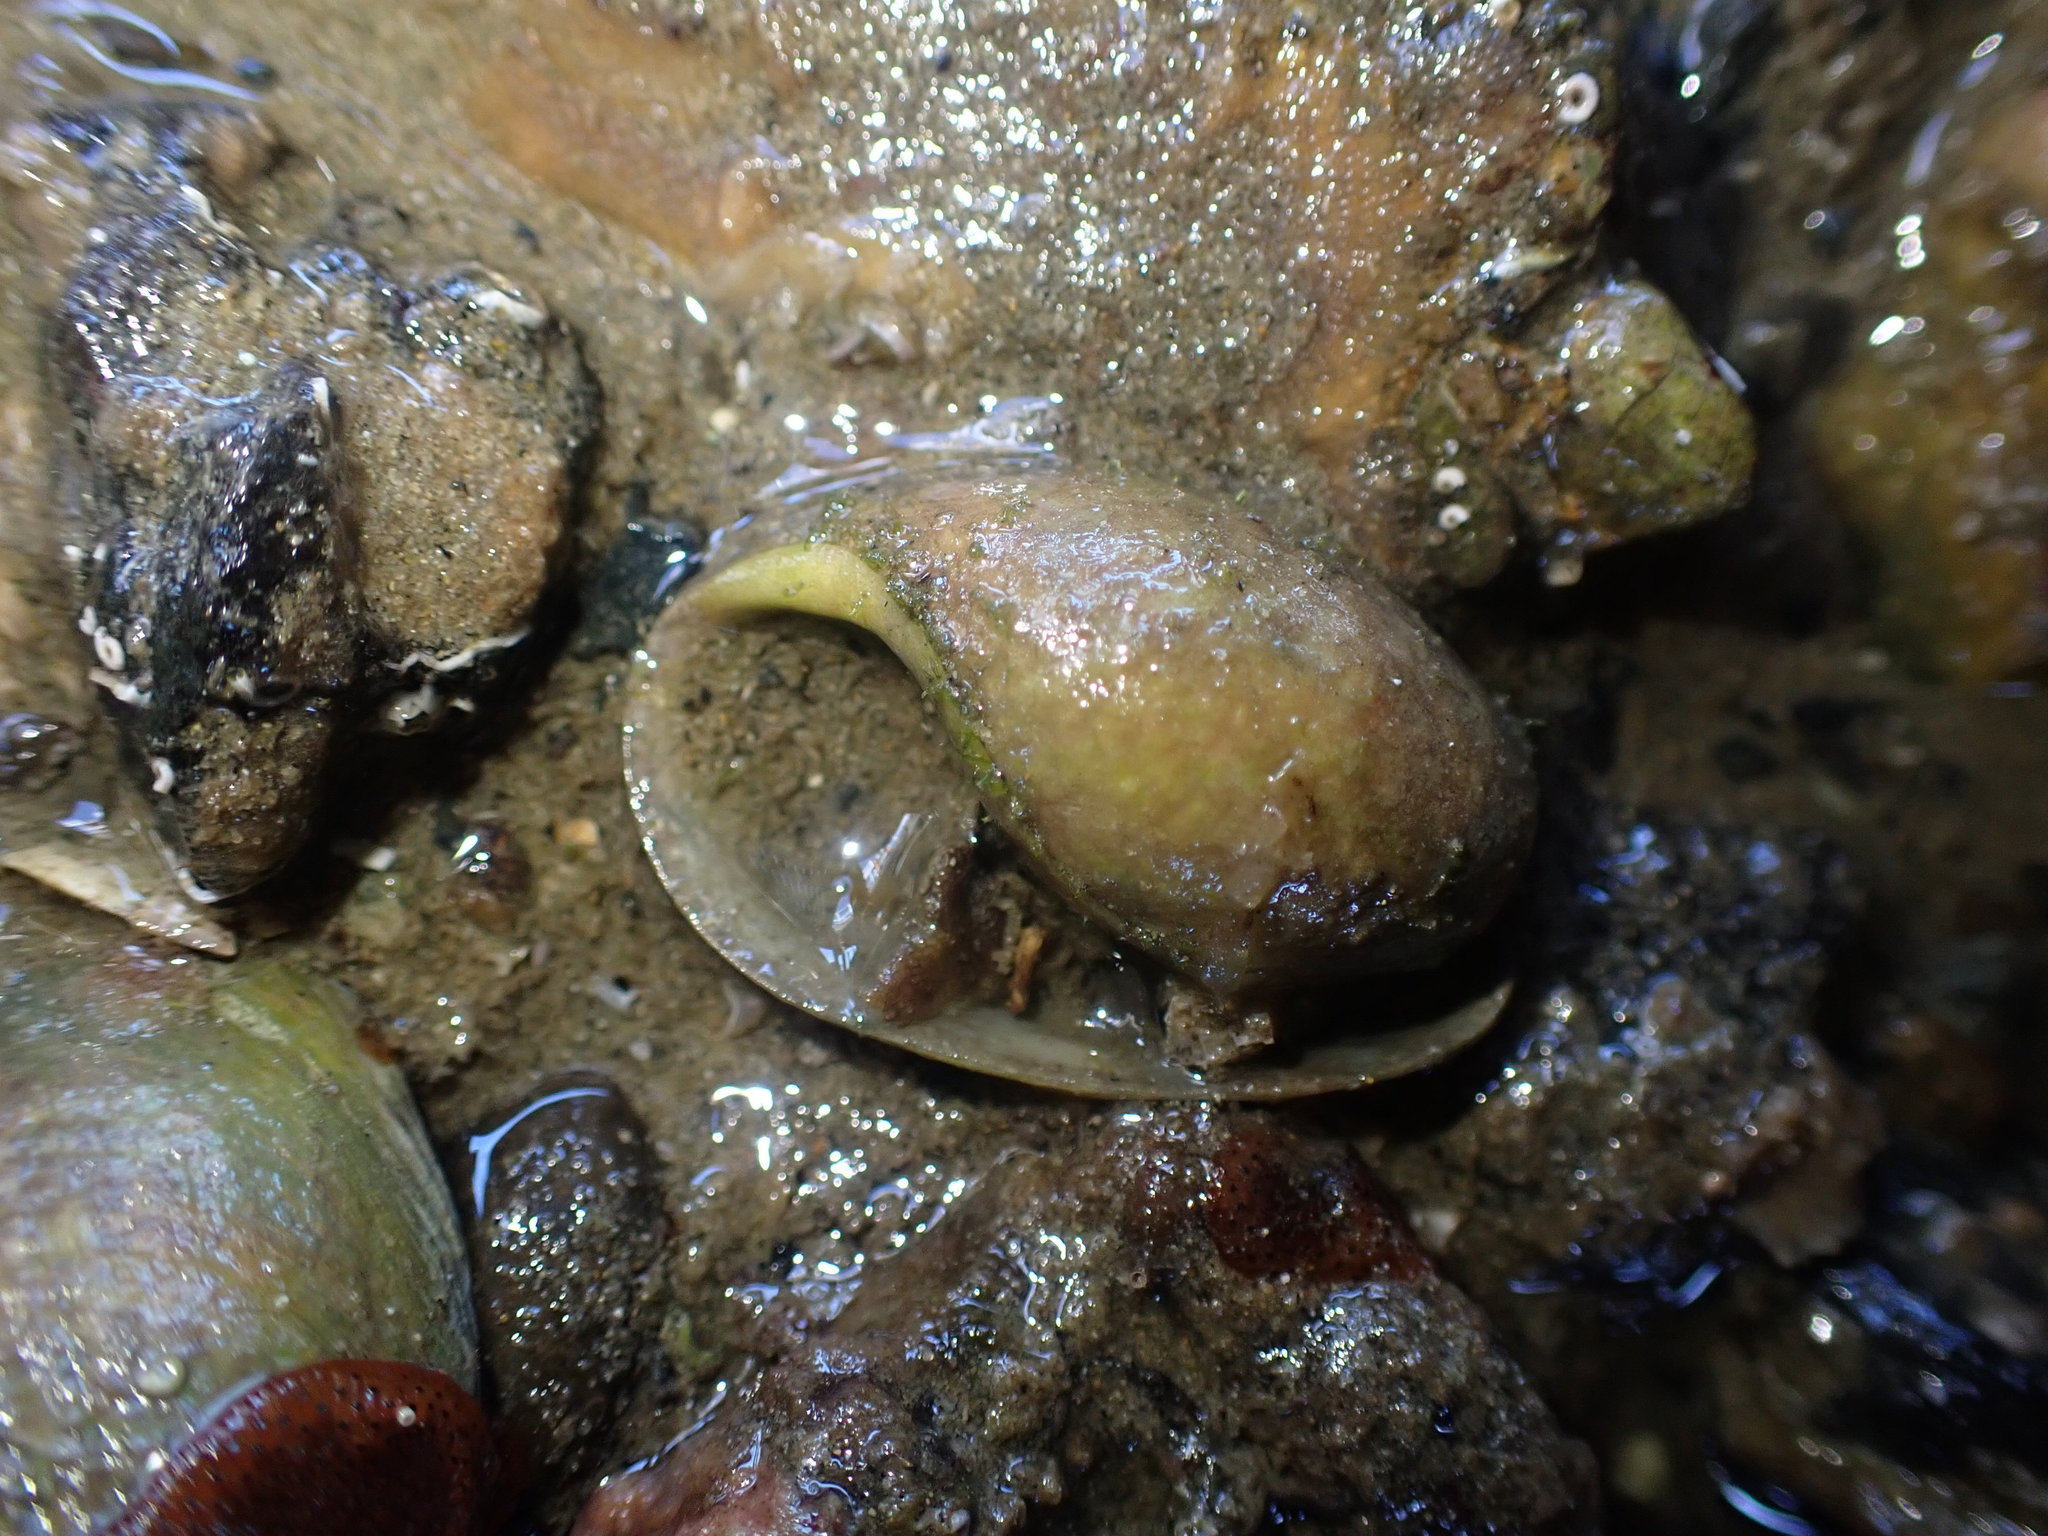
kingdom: Animalia
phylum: Mollusca
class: Gastropoda
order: Cephalaspidea
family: Bullidae
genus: Bulla
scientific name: Bulla quoyii
